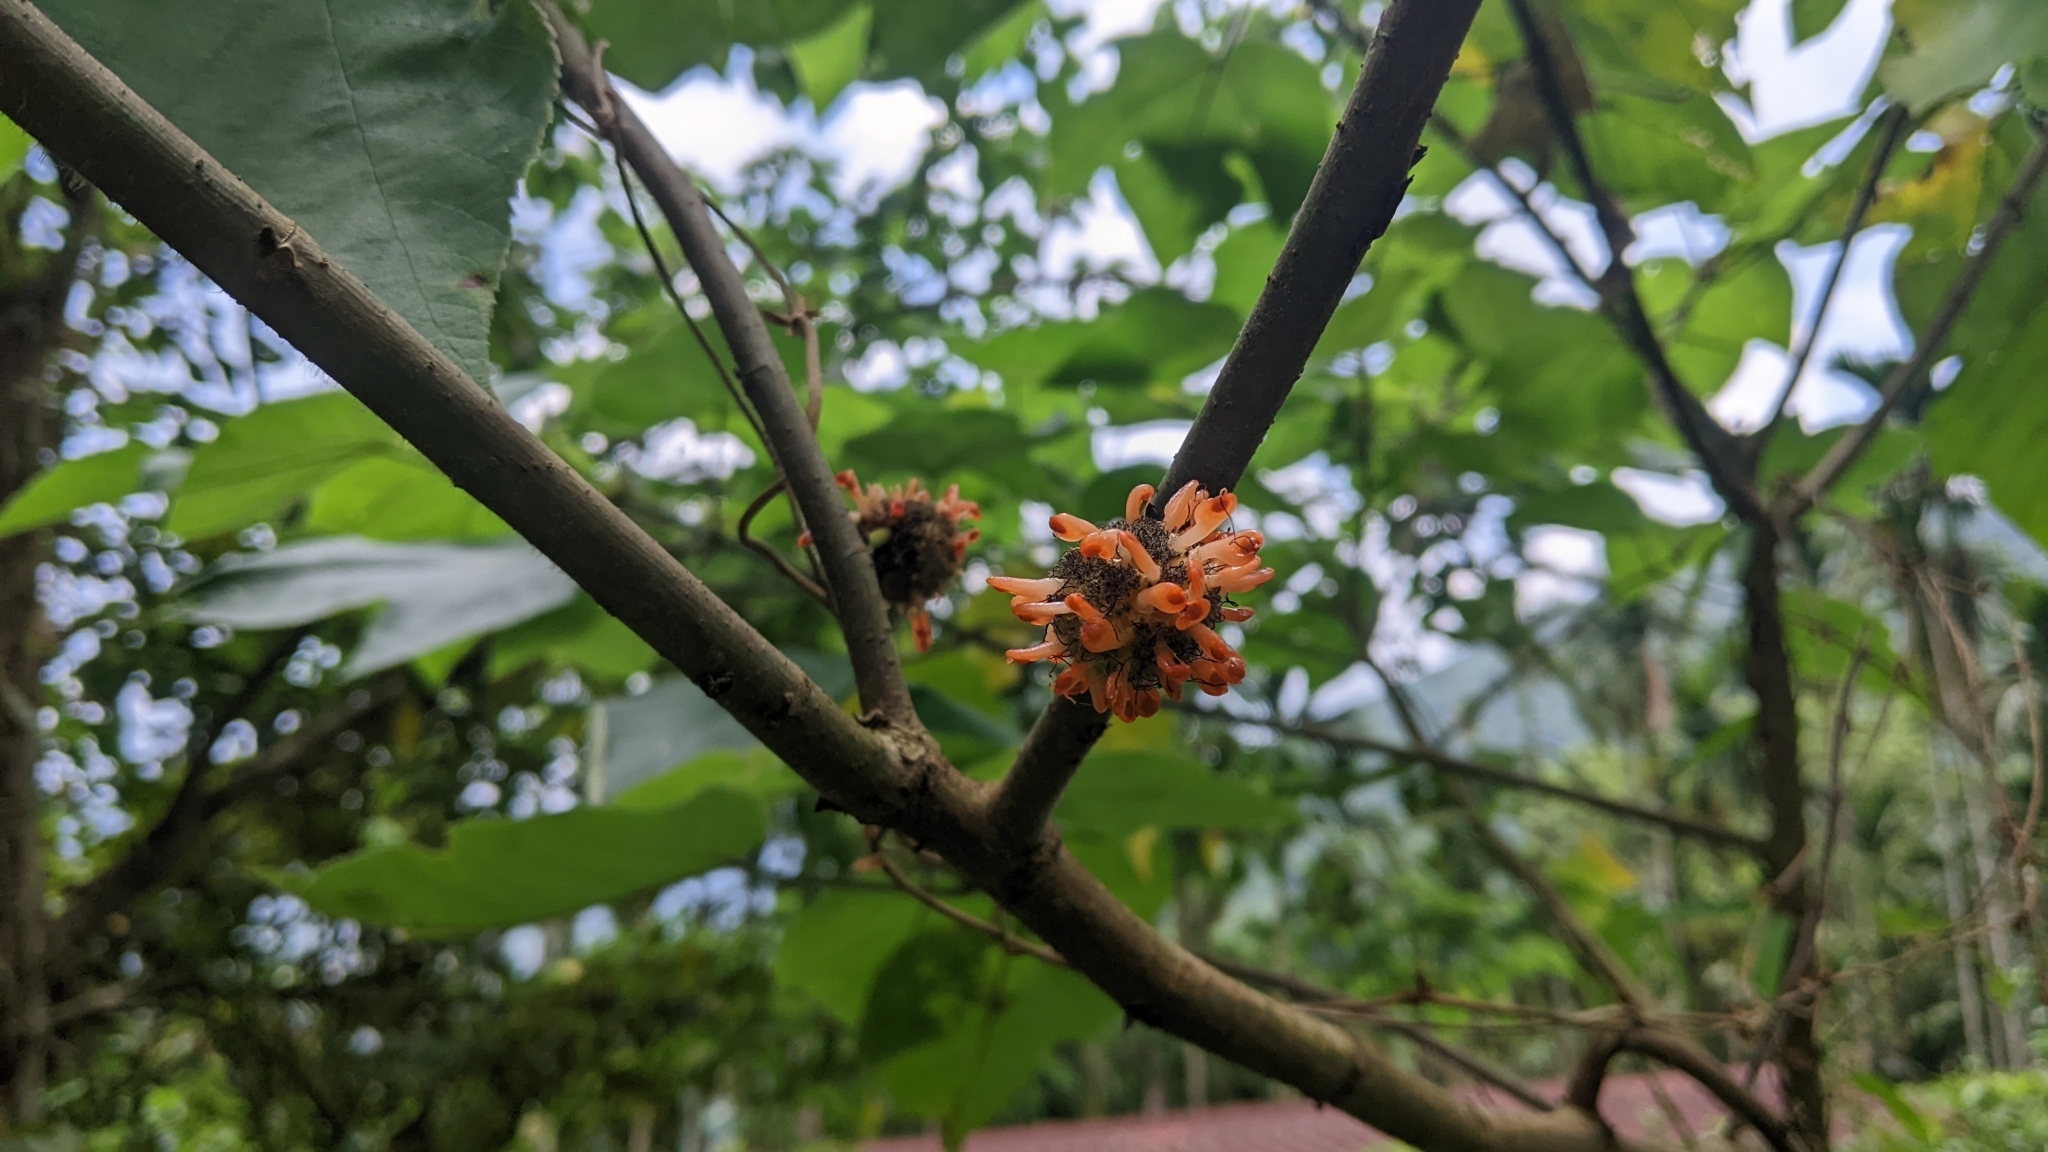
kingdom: Plantae
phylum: Tracheophyta
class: Magnoliopsida
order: Rosales
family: Moraceae
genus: Broussonetia
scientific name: Broussonetia papyrifera
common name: Paper mulberry
